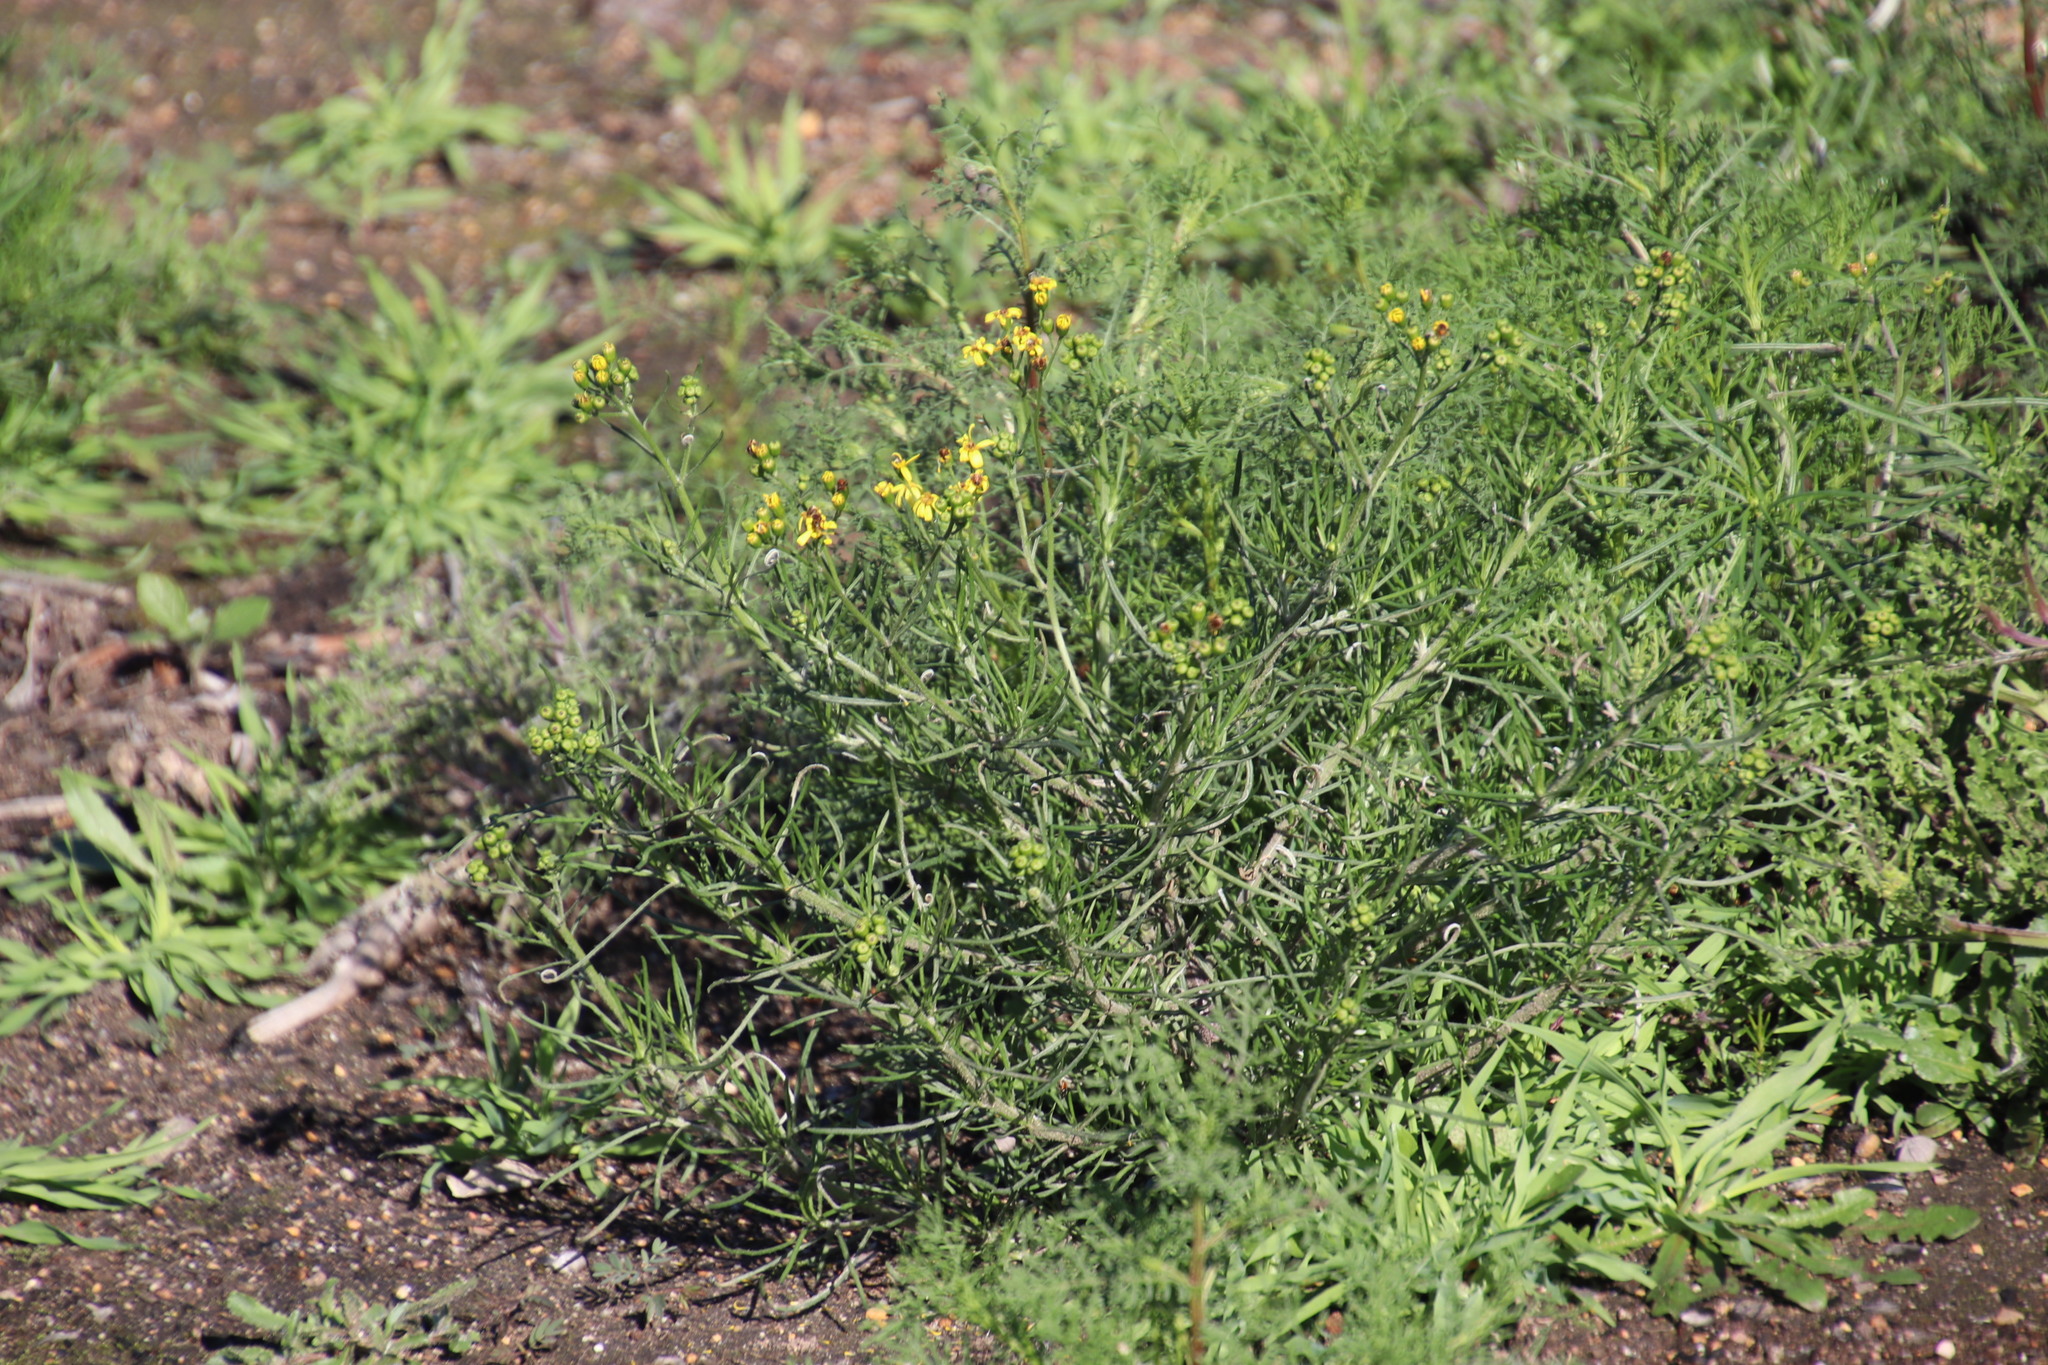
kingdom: Plantae
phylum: Tracheophyta
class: Magnoliopsida
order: Asterales
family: Asteraceae
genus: Senecio
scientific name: Senecio burchellii
